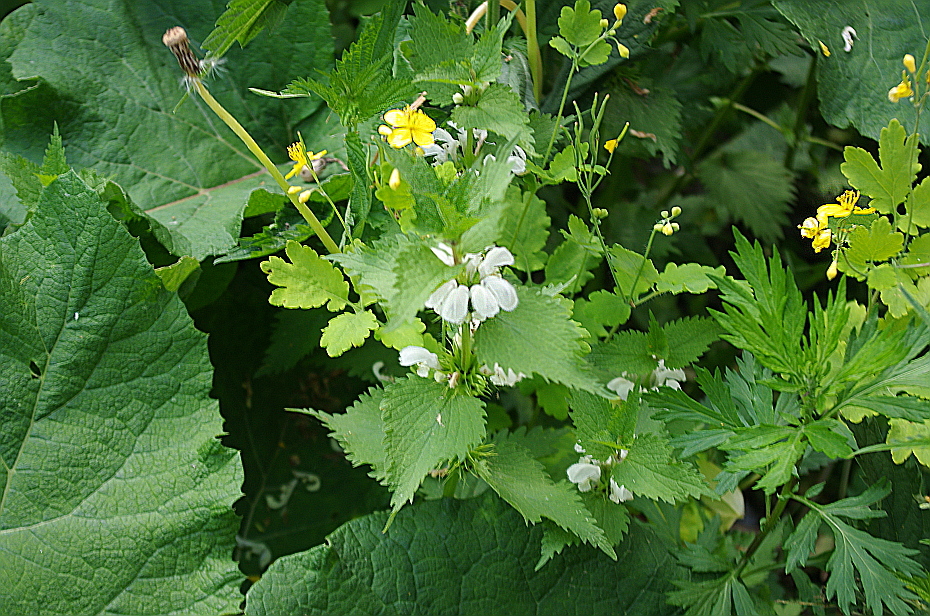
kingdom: Plantae
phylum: Tracheophyta
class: Magnoliopsida
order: Ranunculales
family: Papaveraceae
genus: Chelidonium
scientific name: Chelidonium majus
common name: Greater celandine
